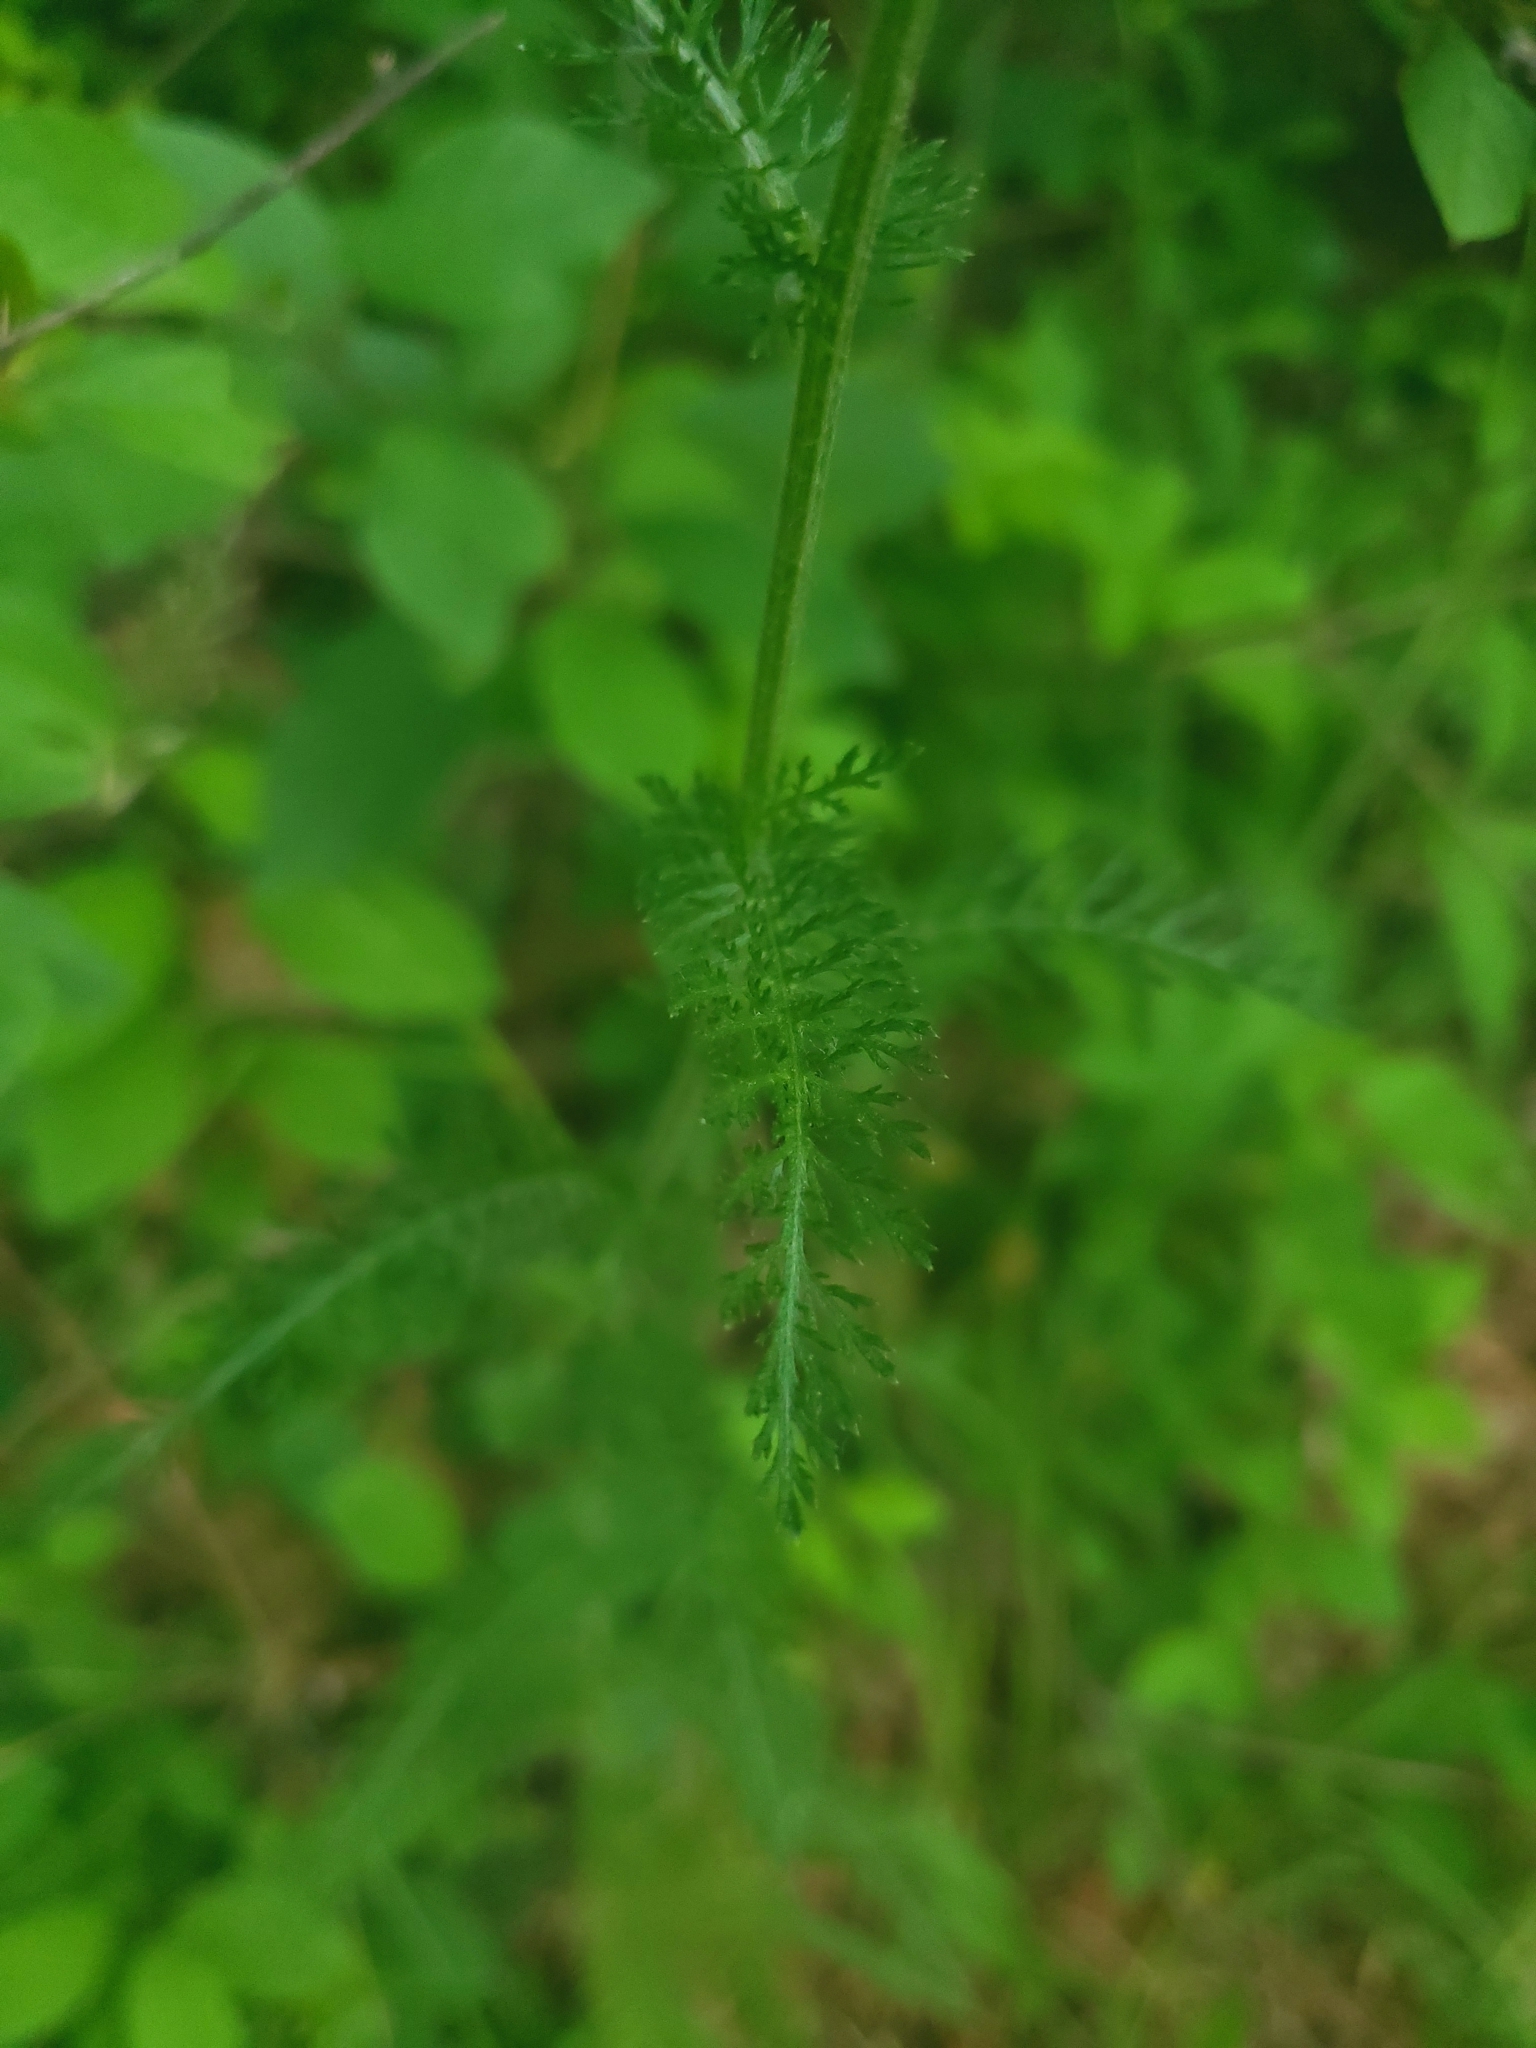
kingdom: Plantae
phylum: Tracheophyta
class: Magnoliopsida
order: Asterales
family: Asteraceae
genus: Achillea
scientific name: Achillea millefolium
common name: Yarrow
